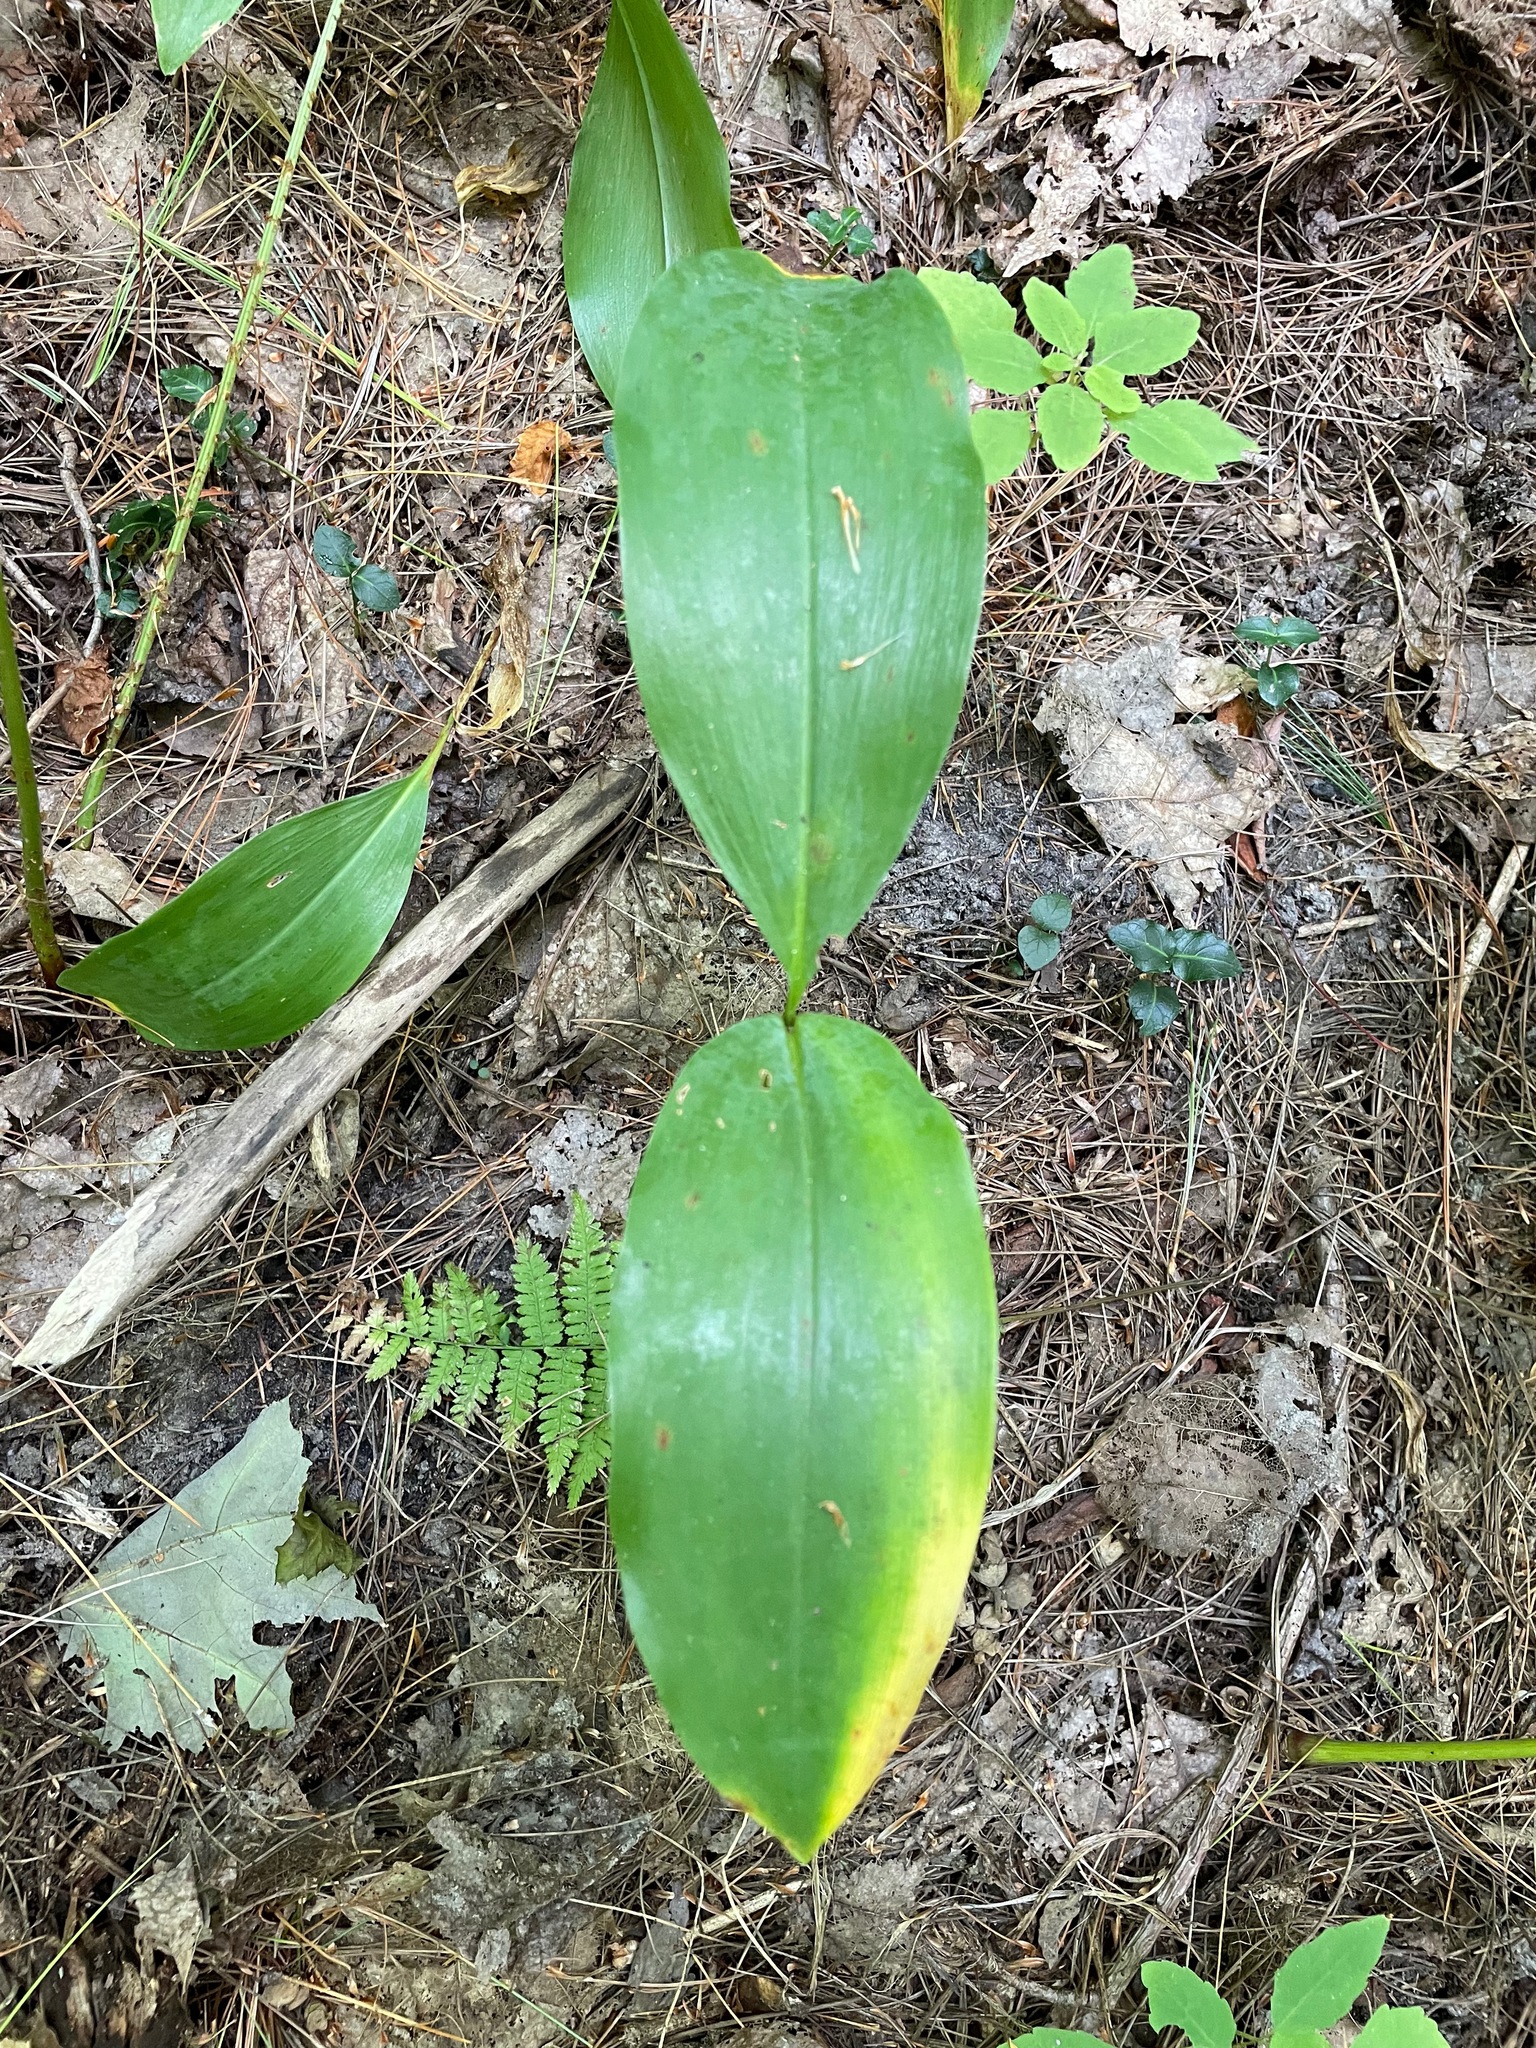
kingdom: Plantae
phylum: Tracheophyta
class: Liliopsida
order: Asparagales
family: Asparagaceae
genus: Convallaria
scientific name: Convallaria majalis
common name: Lily-of-the-valley
